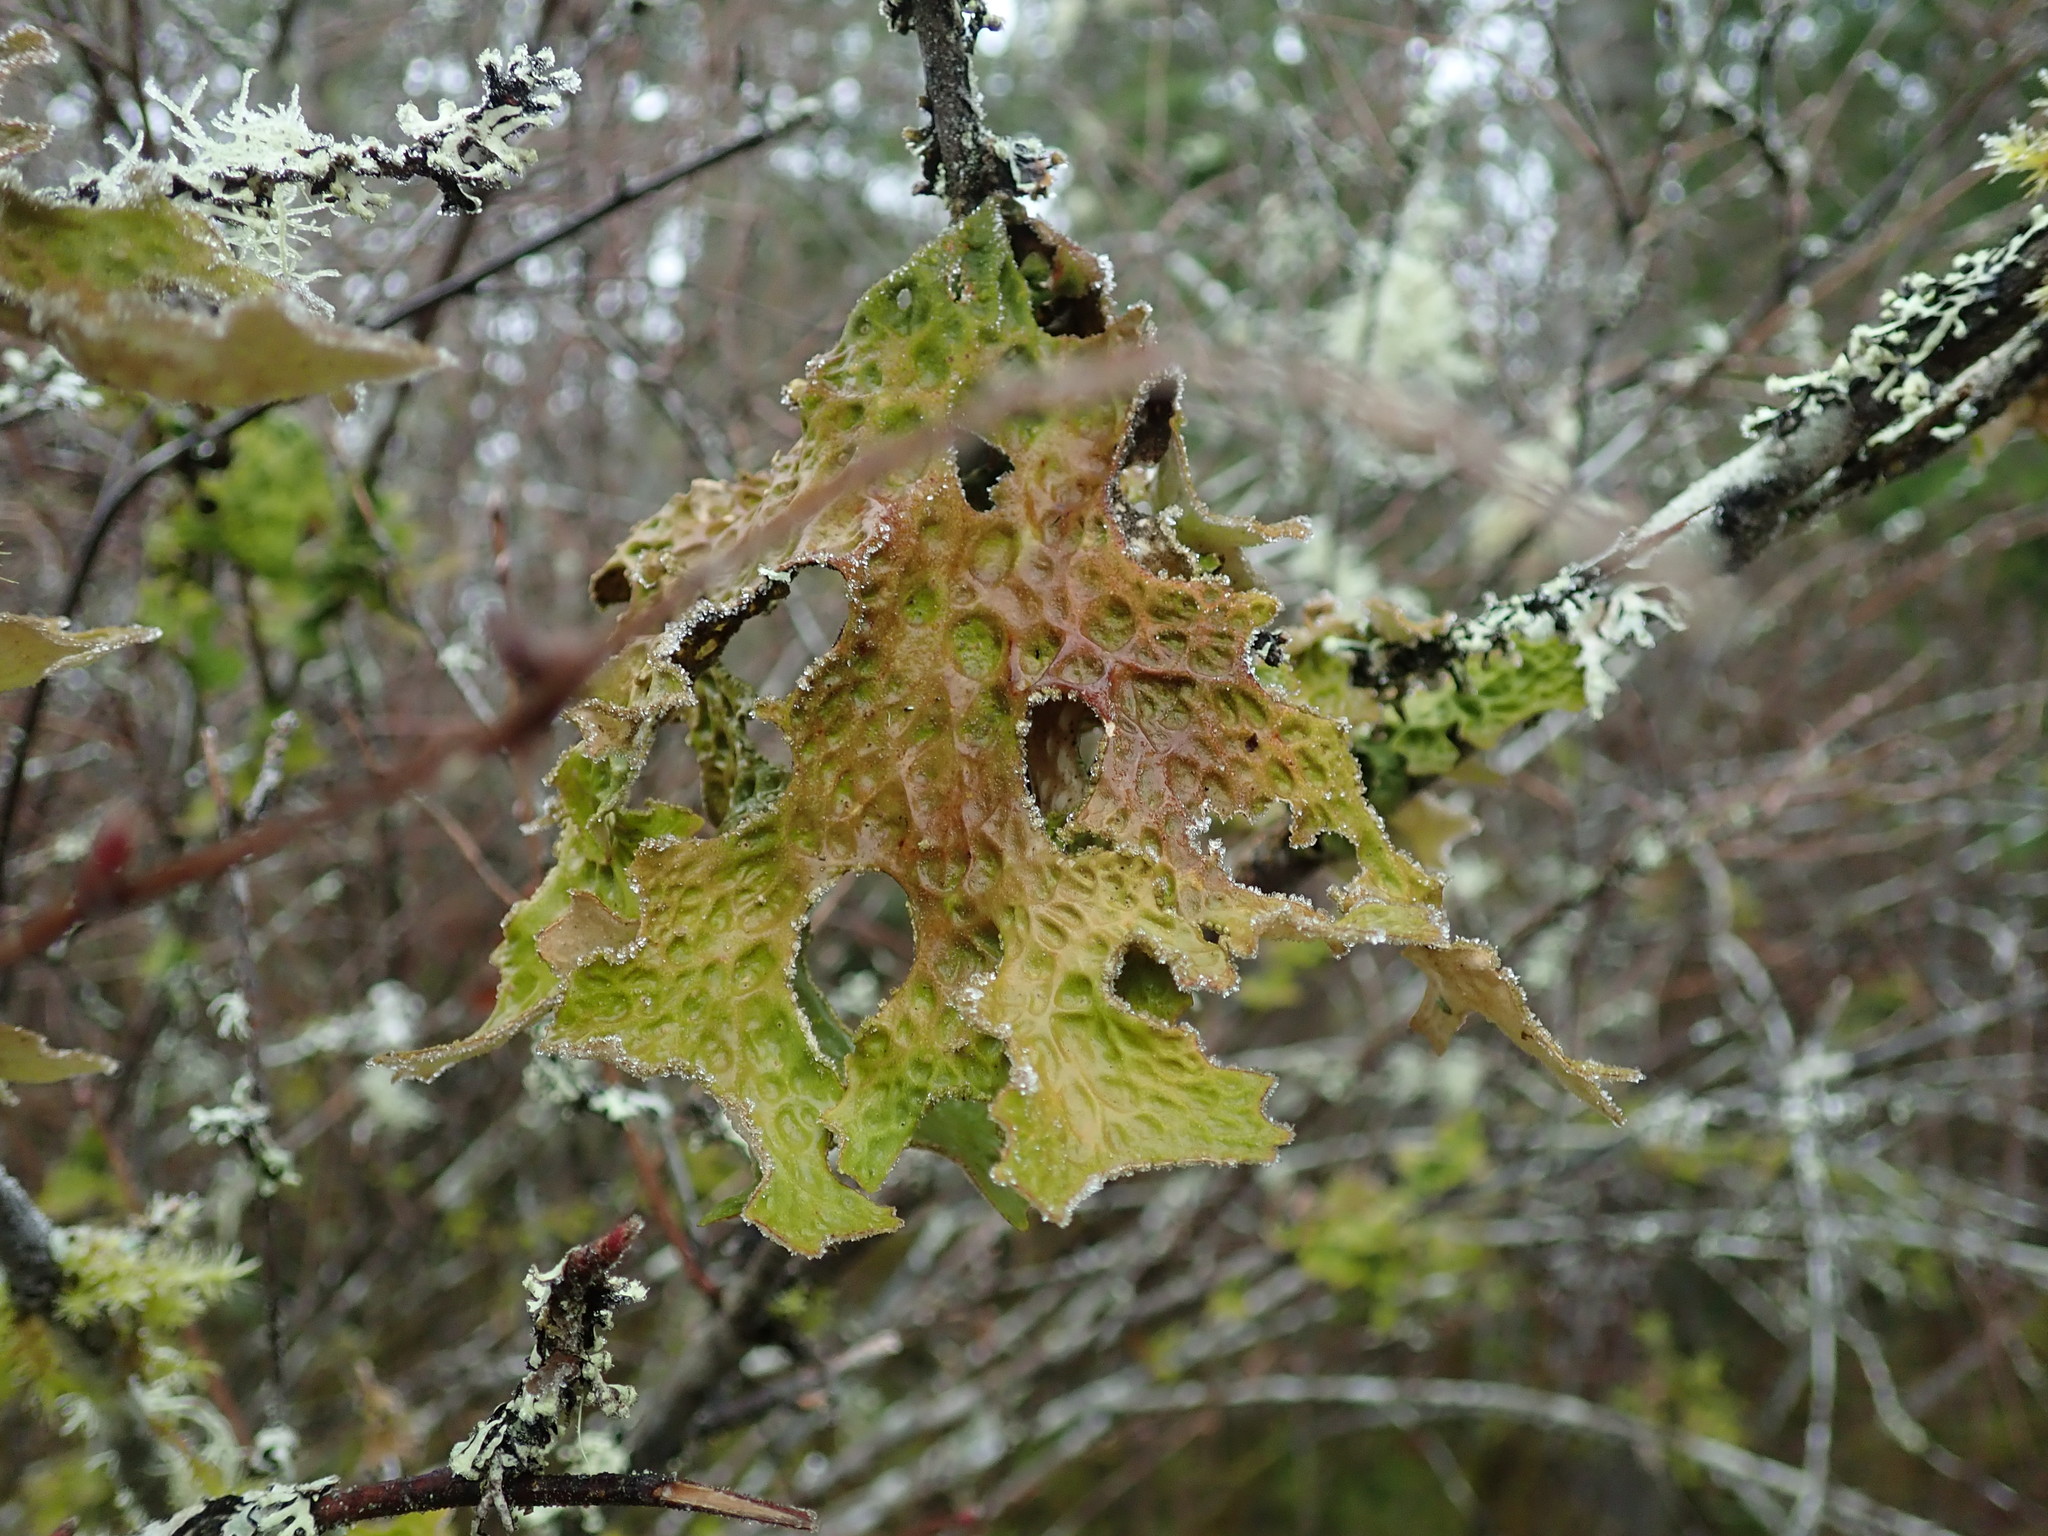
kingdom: Fungi
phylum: Ascomycota
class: Lecanoromycetes
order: Peltigerales
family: Lobariaceae
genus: Lobaria
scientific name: Lobaria pulmonaria
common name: Lungwort
